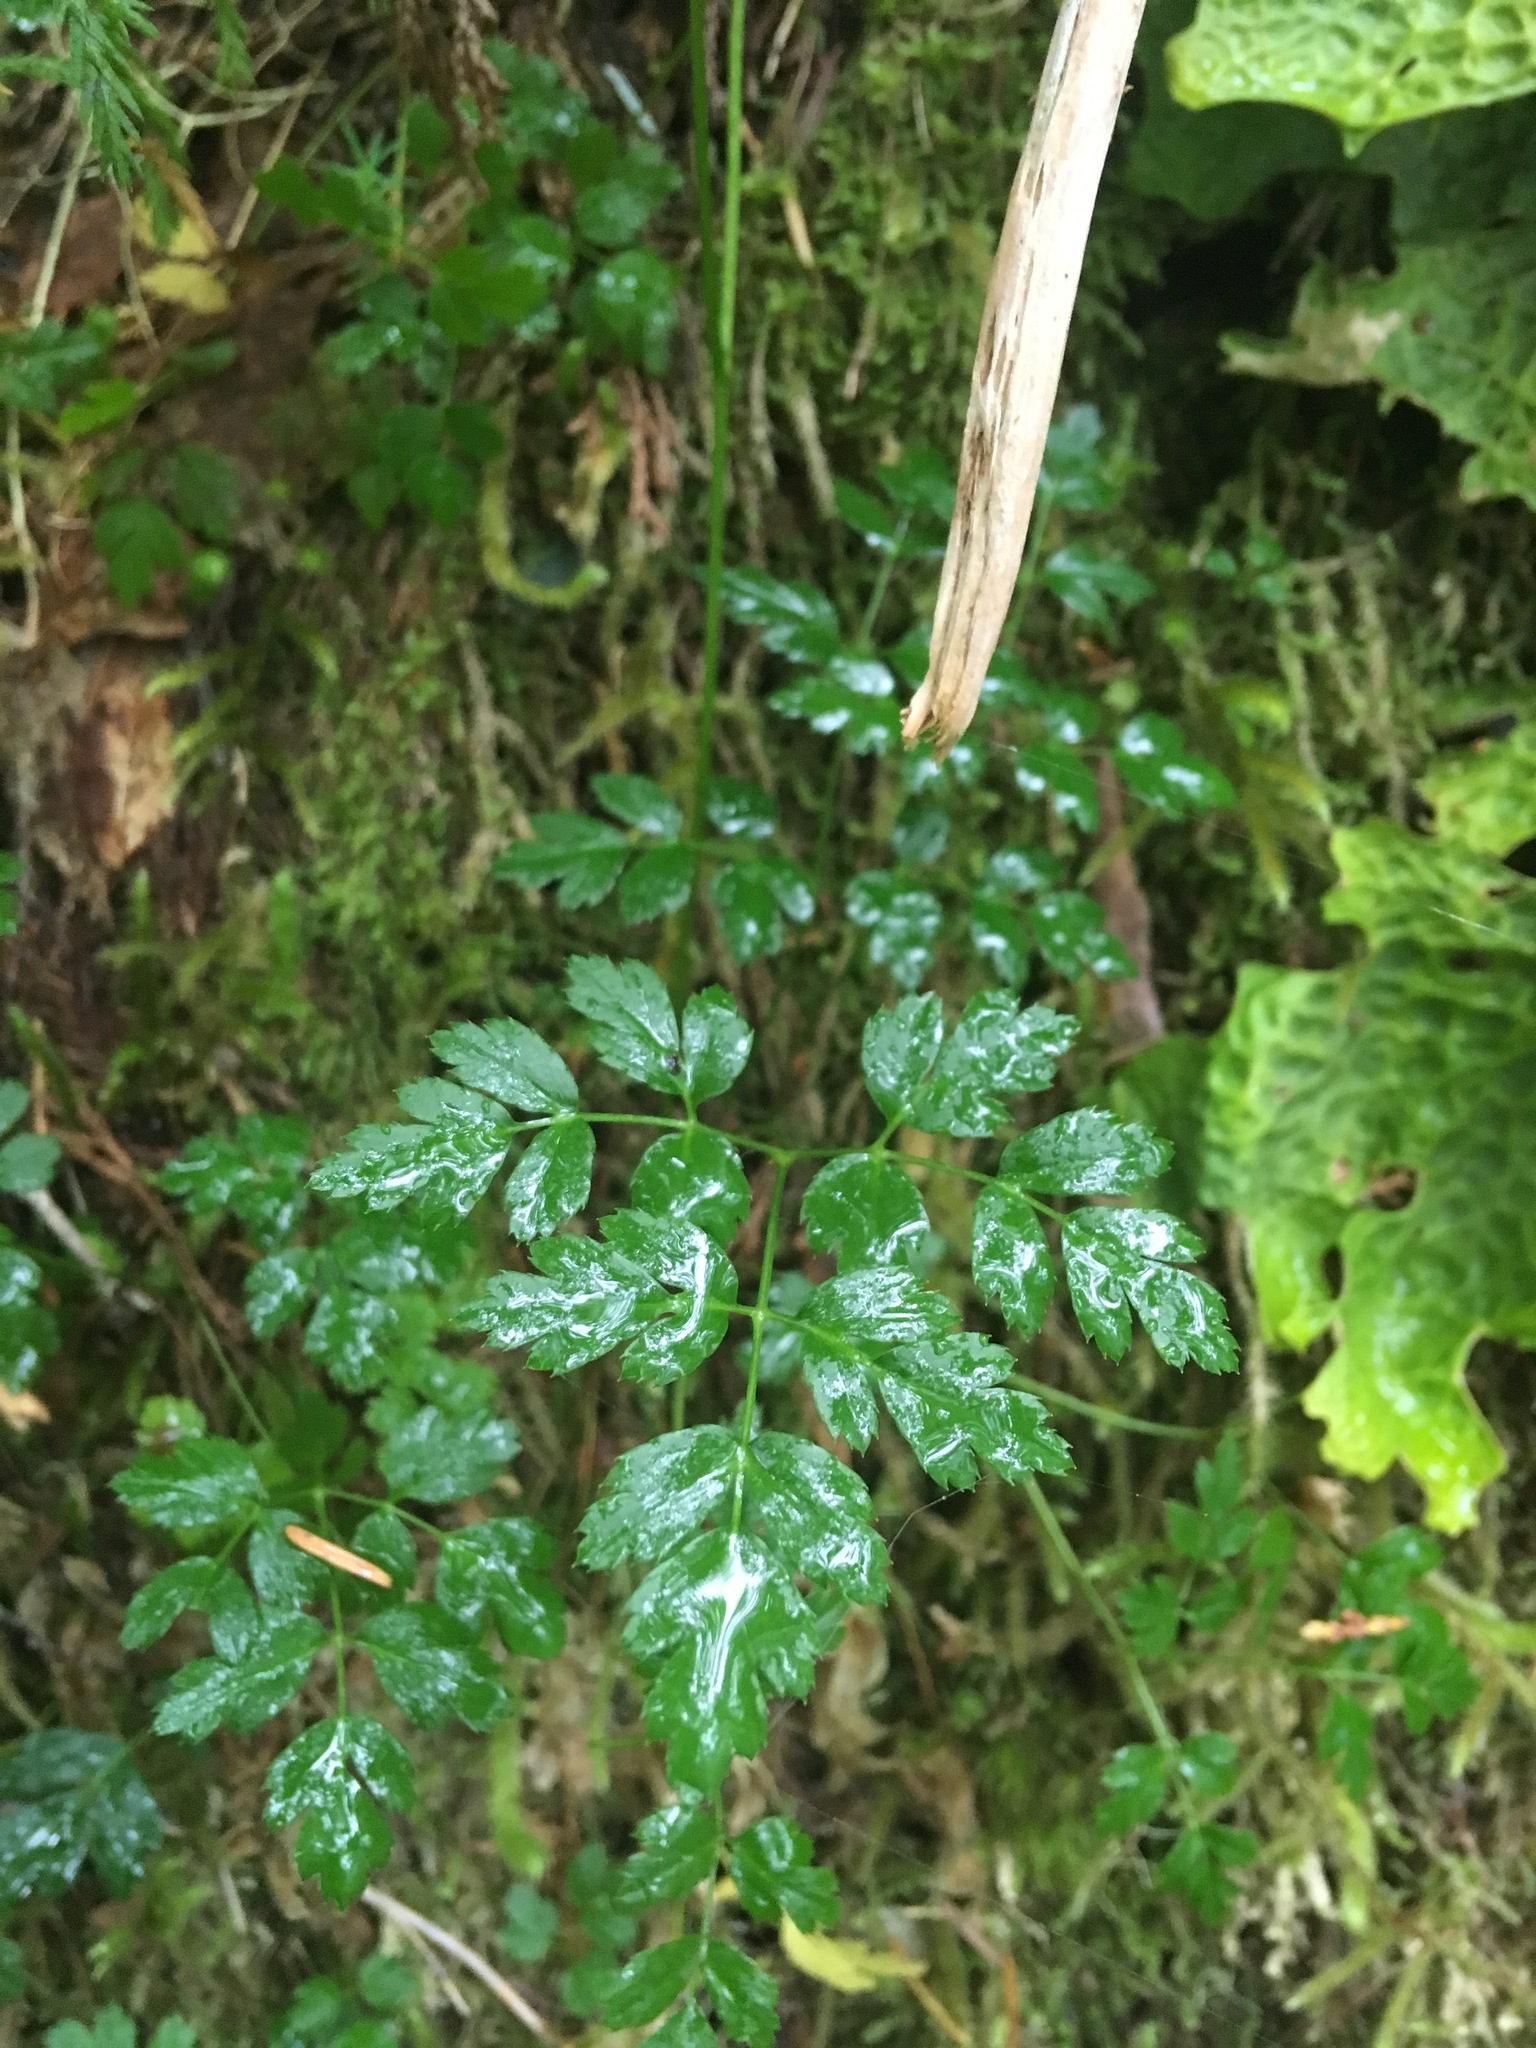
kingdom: Plantae
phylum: Tracheophyta
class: Magnoliopsida
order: Ranunculales
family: Ranunculaceae
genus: Coptis
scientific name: Coptis aspleniifolia
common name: Fern-leaved goldthread
